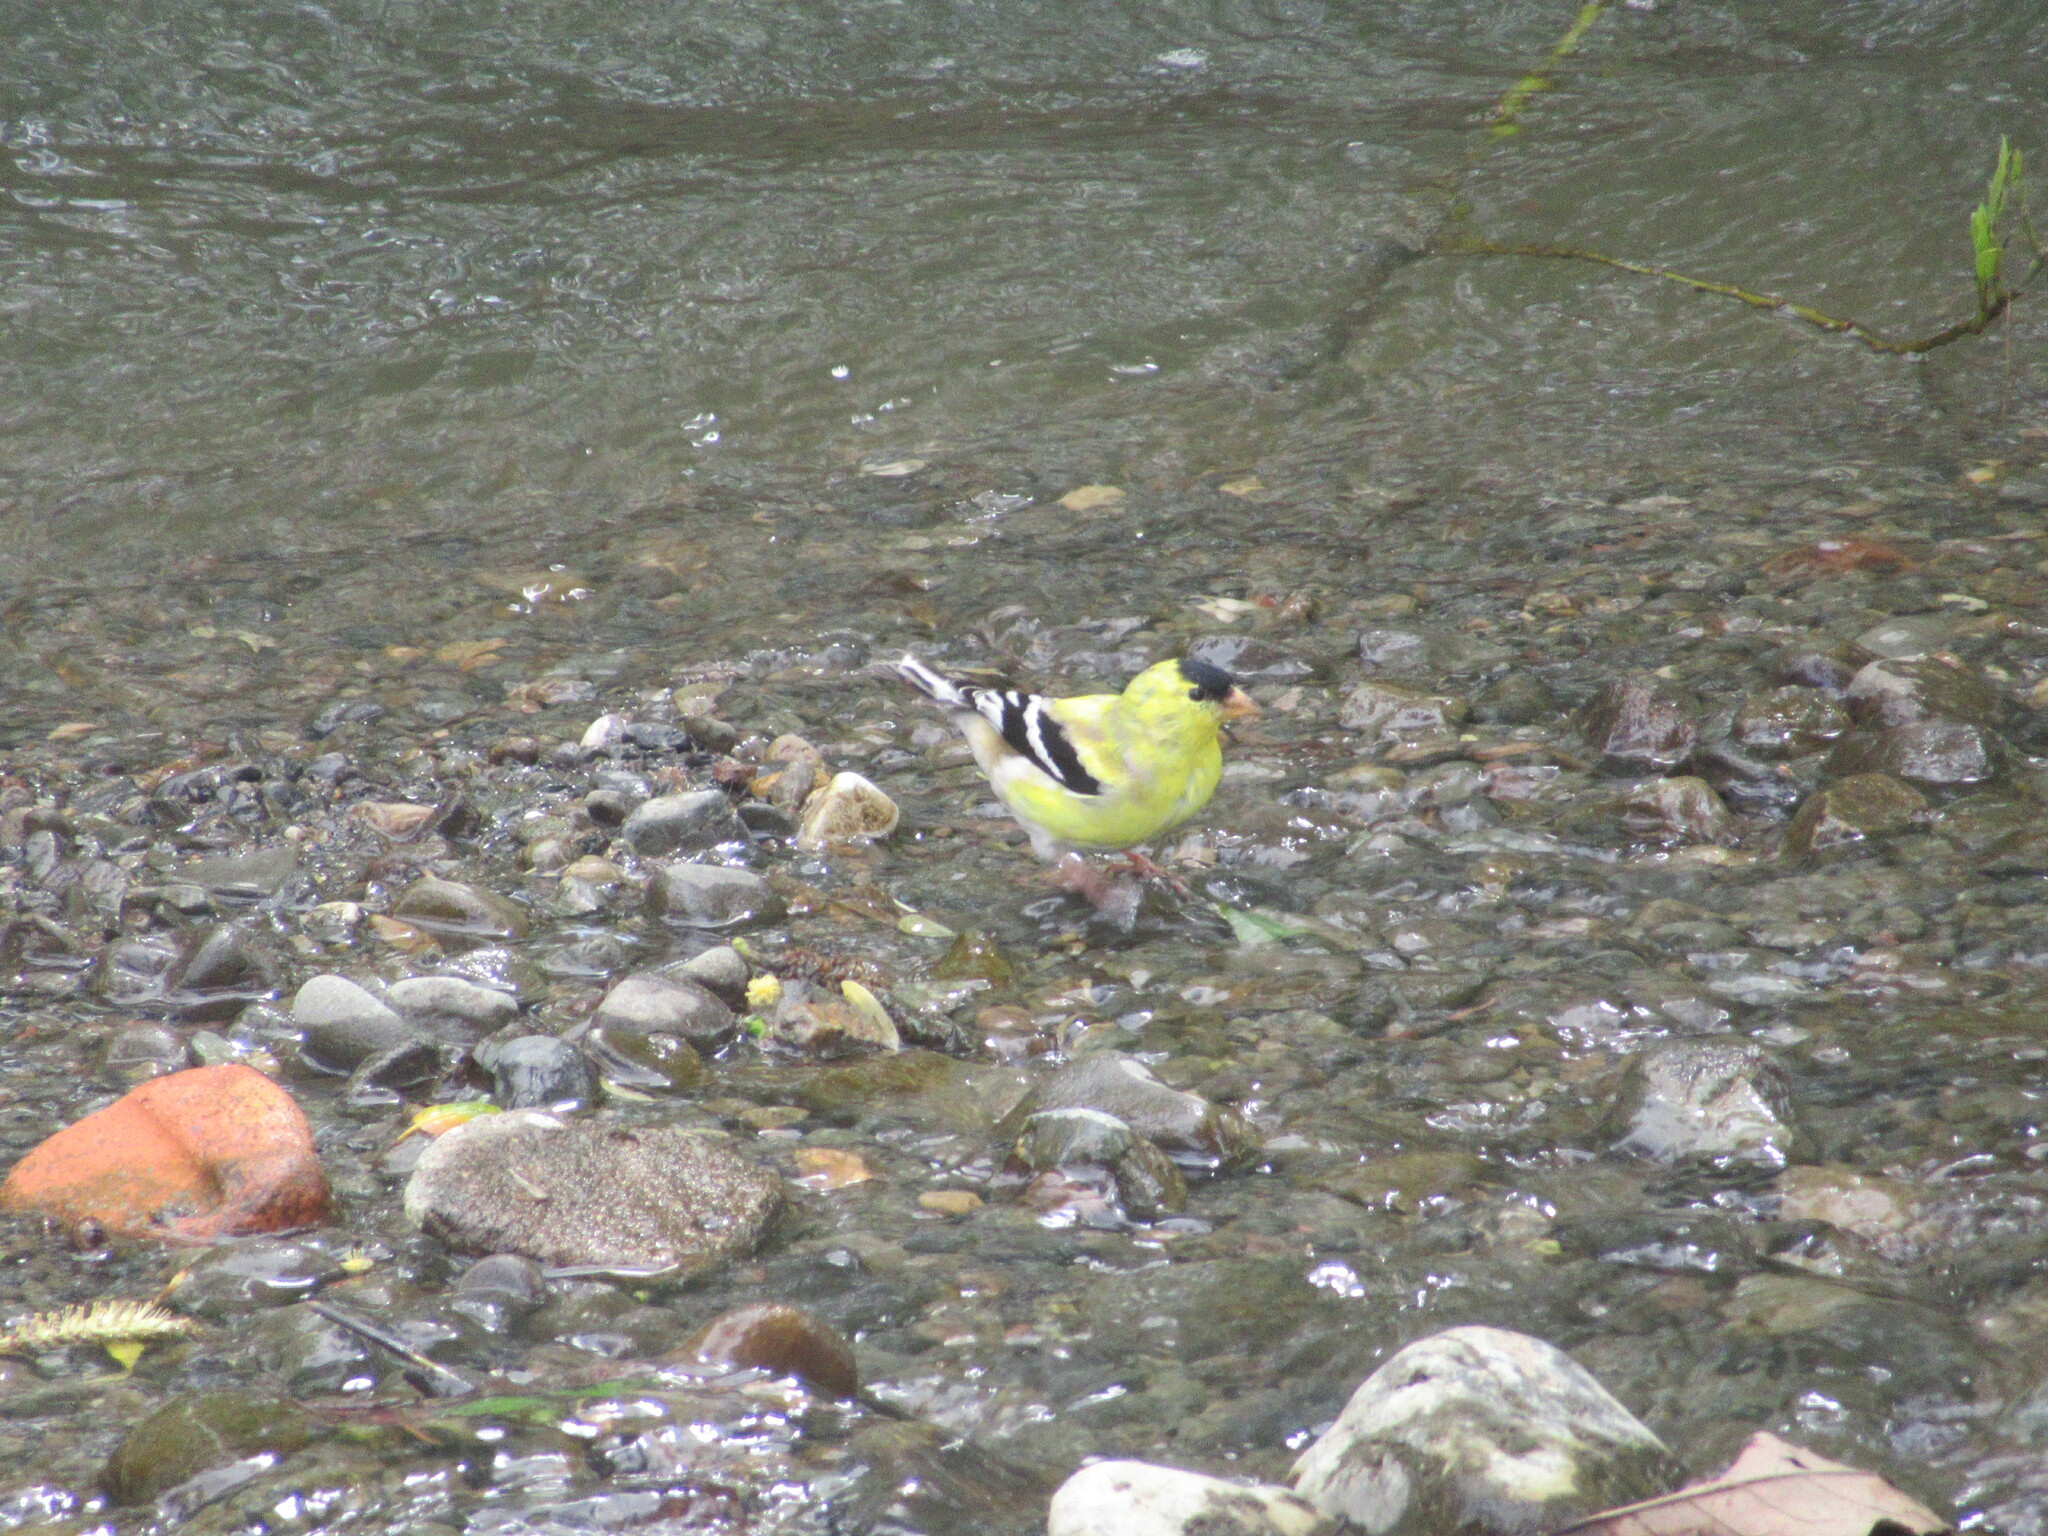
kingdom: Animalia
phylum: Chordata
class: Aves
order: Passeriformes
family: Fringillidae
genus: Spinus
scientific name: Spinus tristis
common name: American goldfinch
